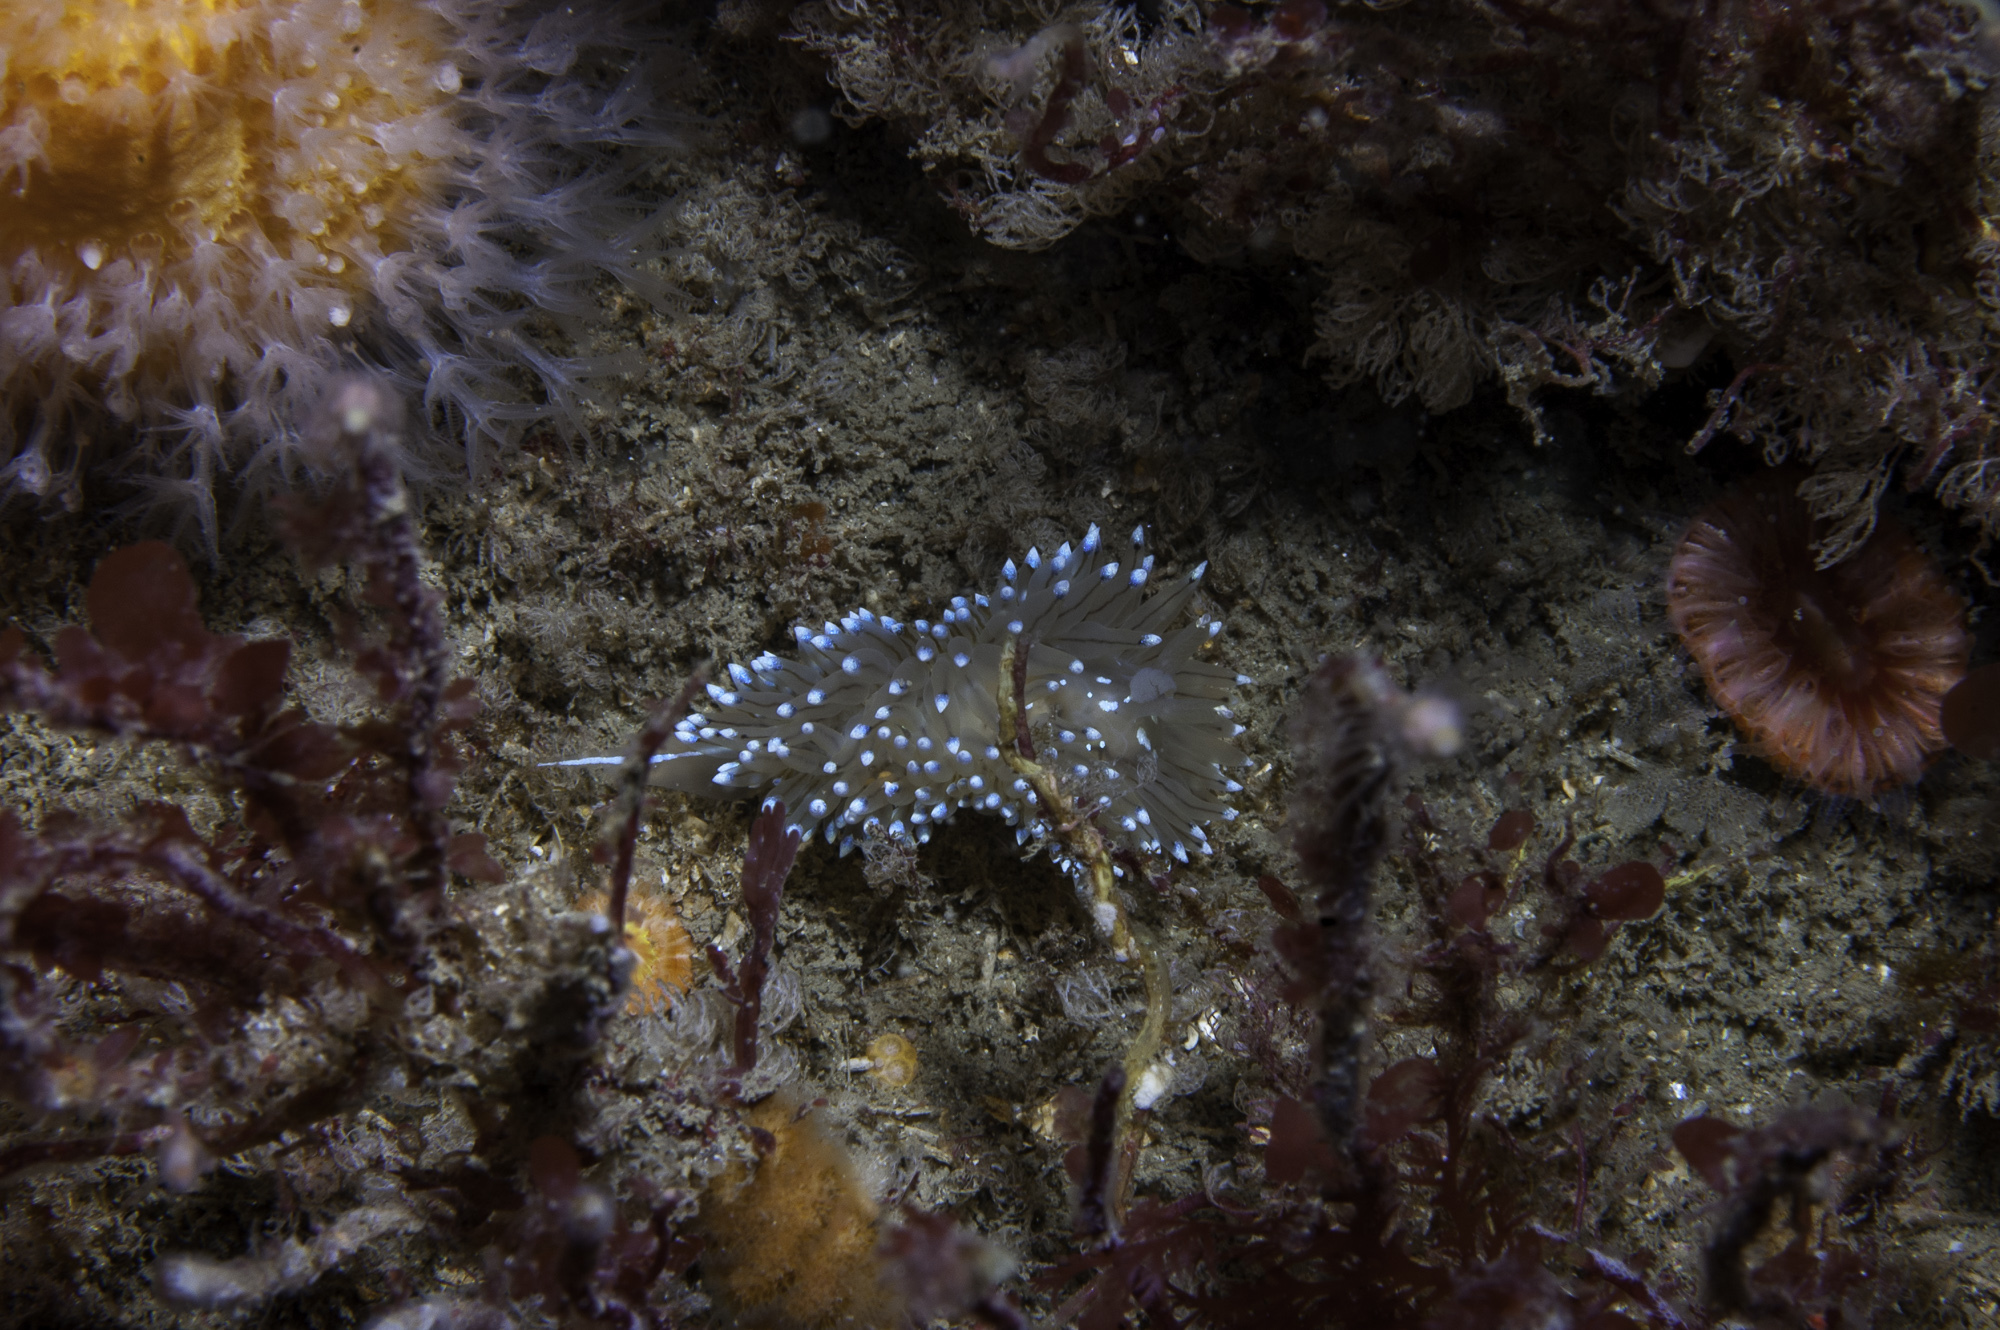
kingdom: Animalia
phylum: Mollusca
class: Gastropoda
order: Nudibranchia
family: Janolidae
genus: Antiopella
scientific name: Antiopella cristata
